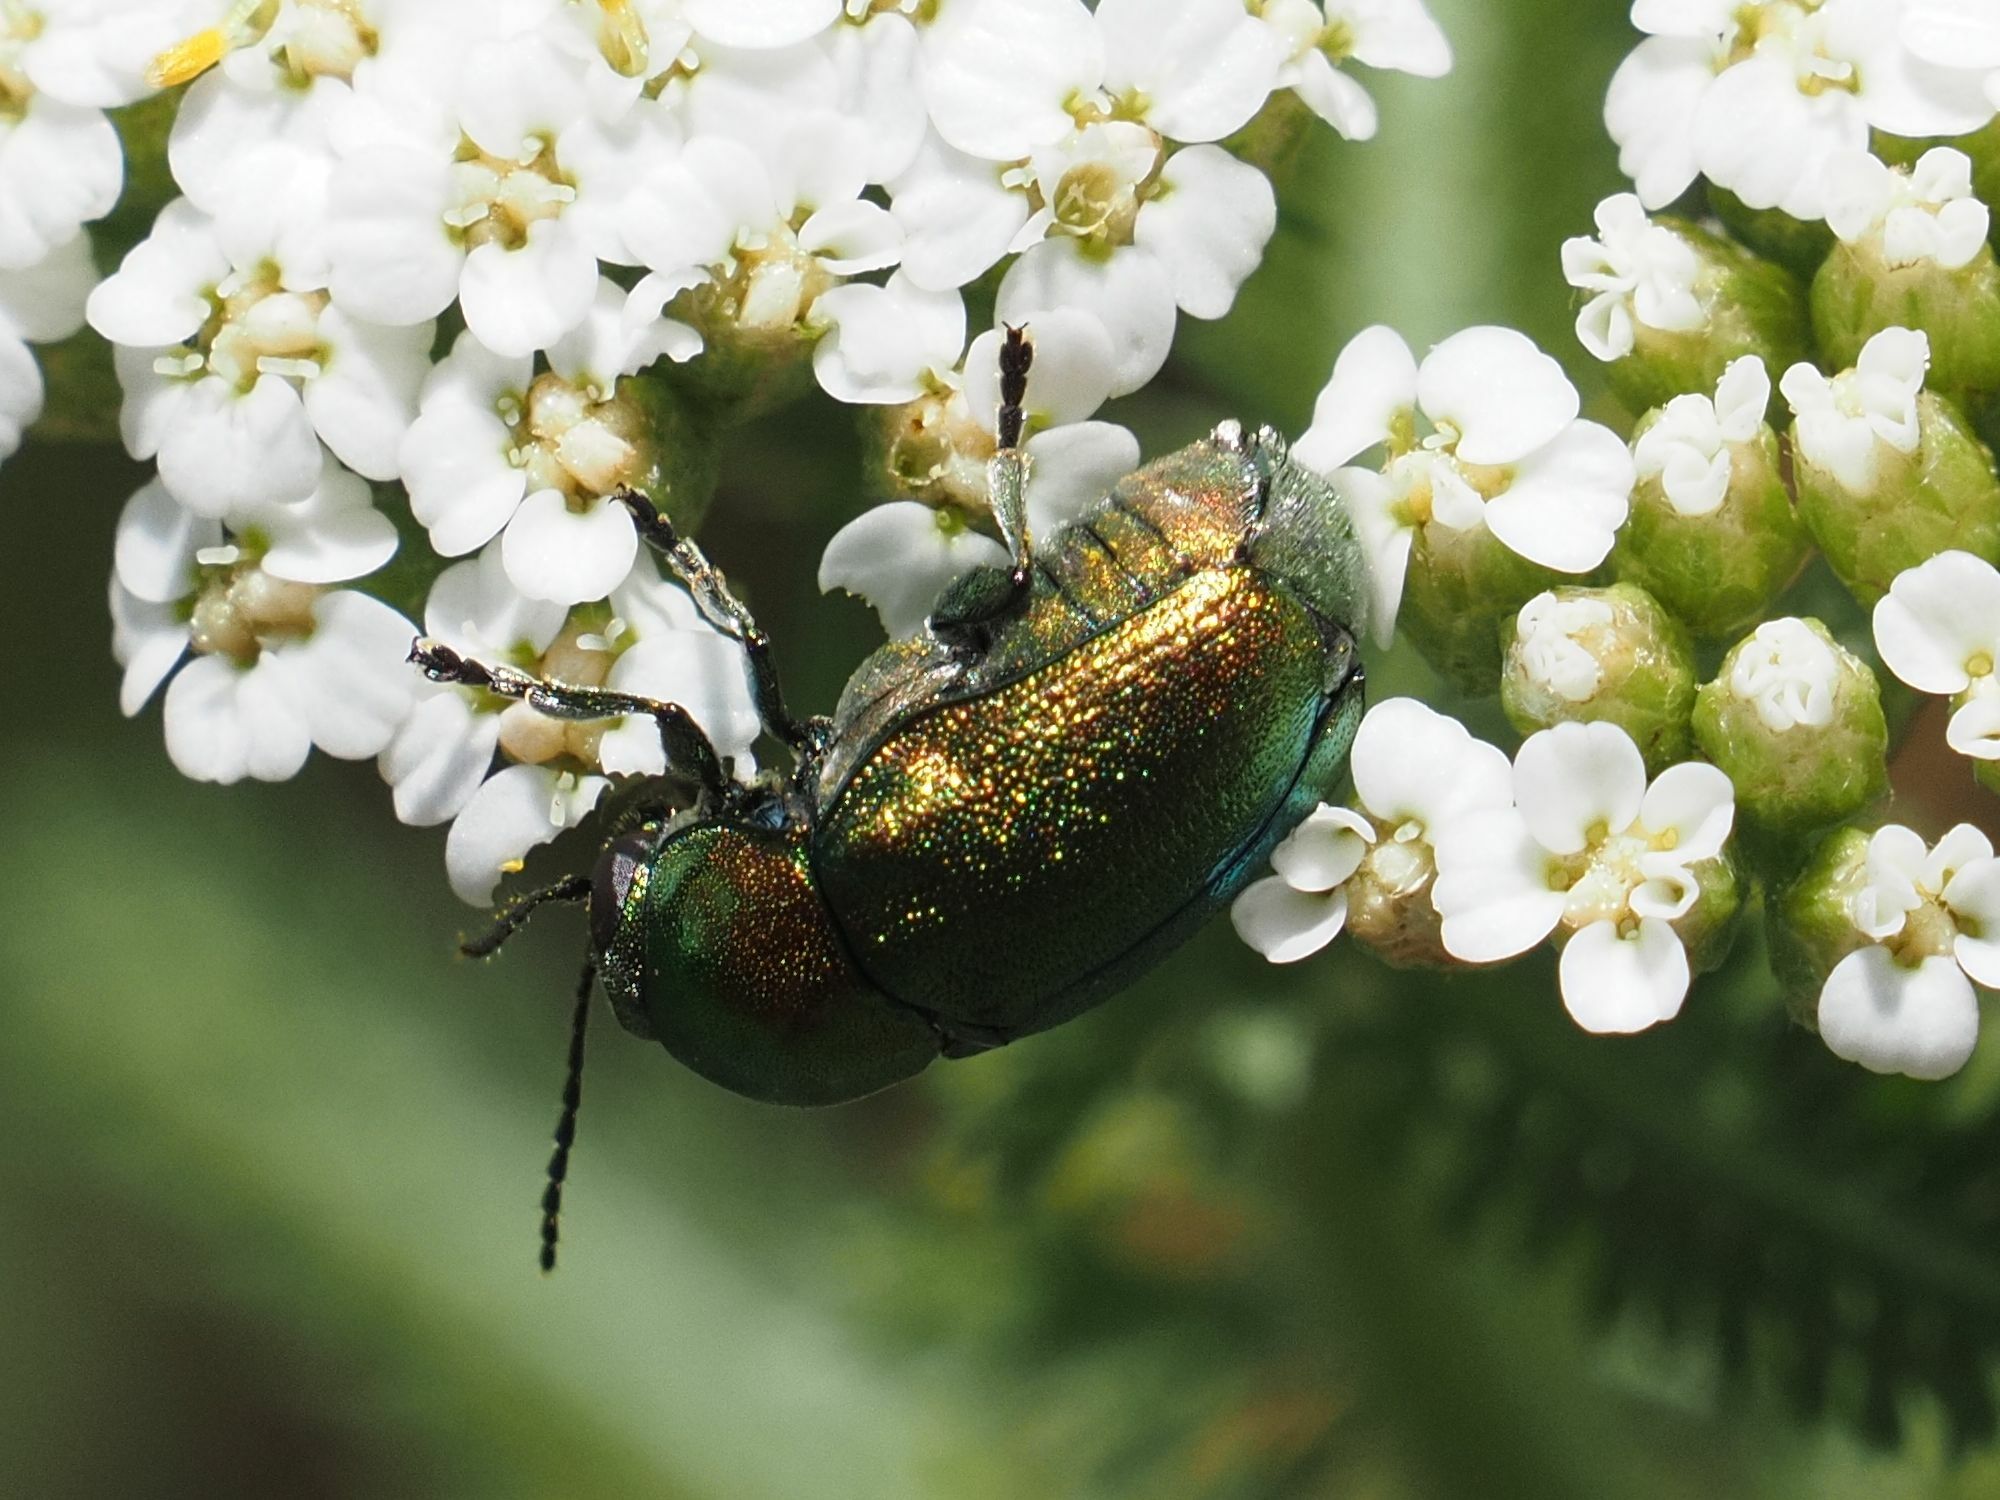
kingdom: Animalia
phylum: Arthropoda
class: Insecta
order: Coleoptera
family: Chrysomelidae
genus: Cryptocephalus
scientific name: Cryptocephalus sericeus
